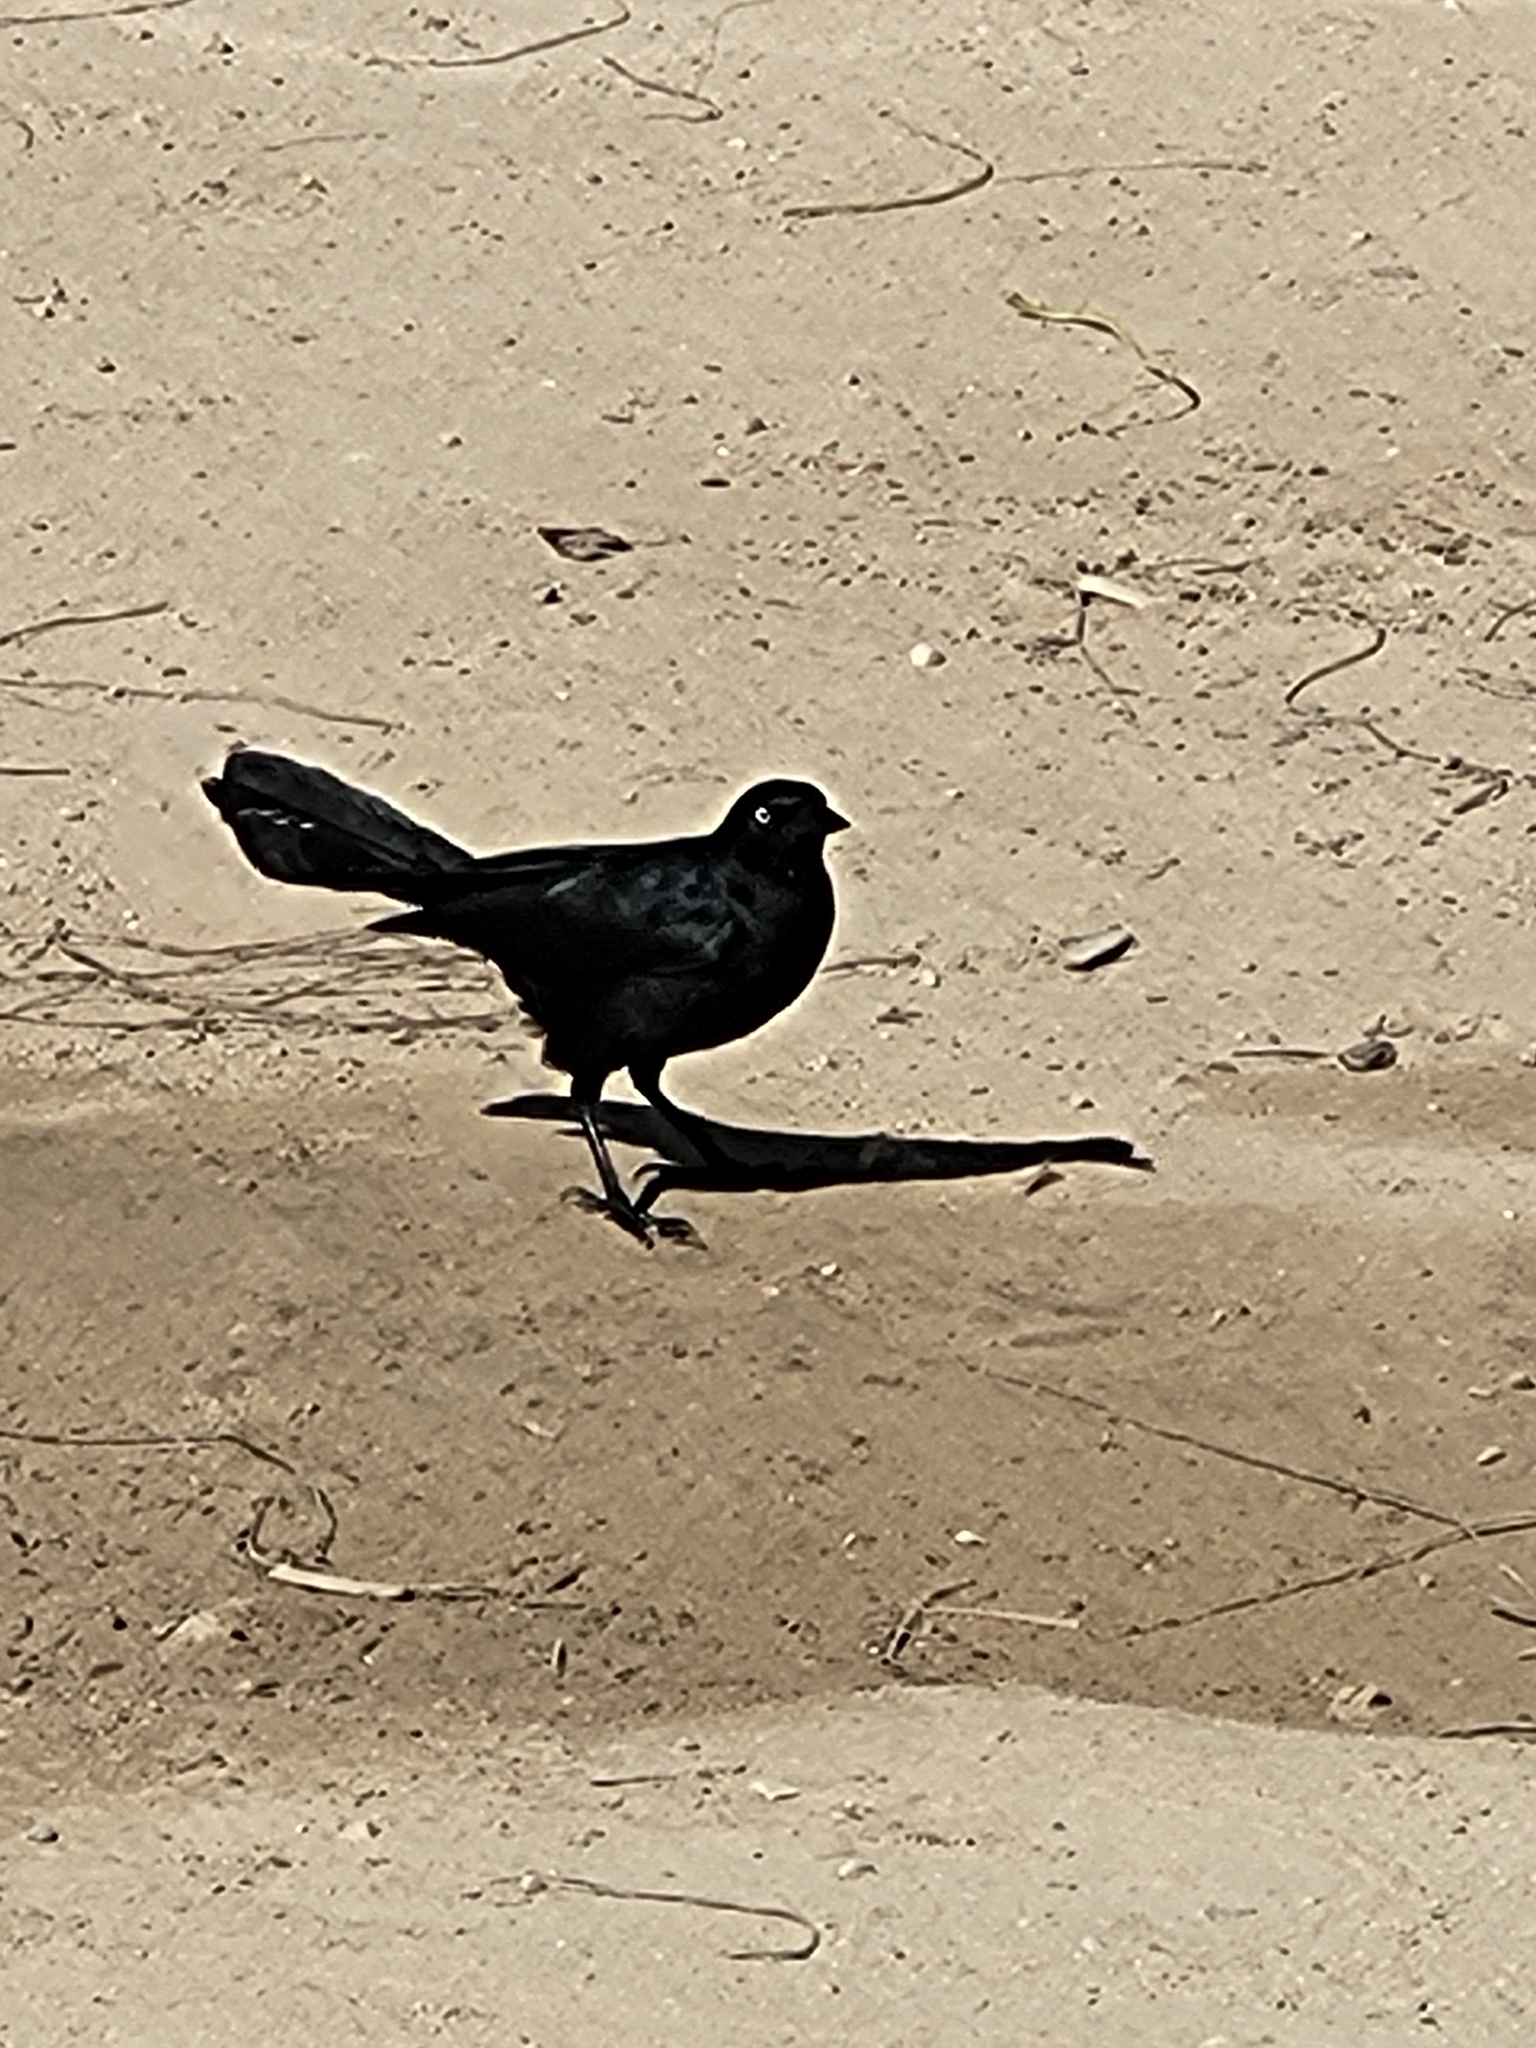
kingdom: Animalia
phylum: Chordata
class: Aves
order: Passeriformes
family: Icteridae
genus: Quiscalus
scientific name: Quiscalus niger
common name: Greater antillean grackle
